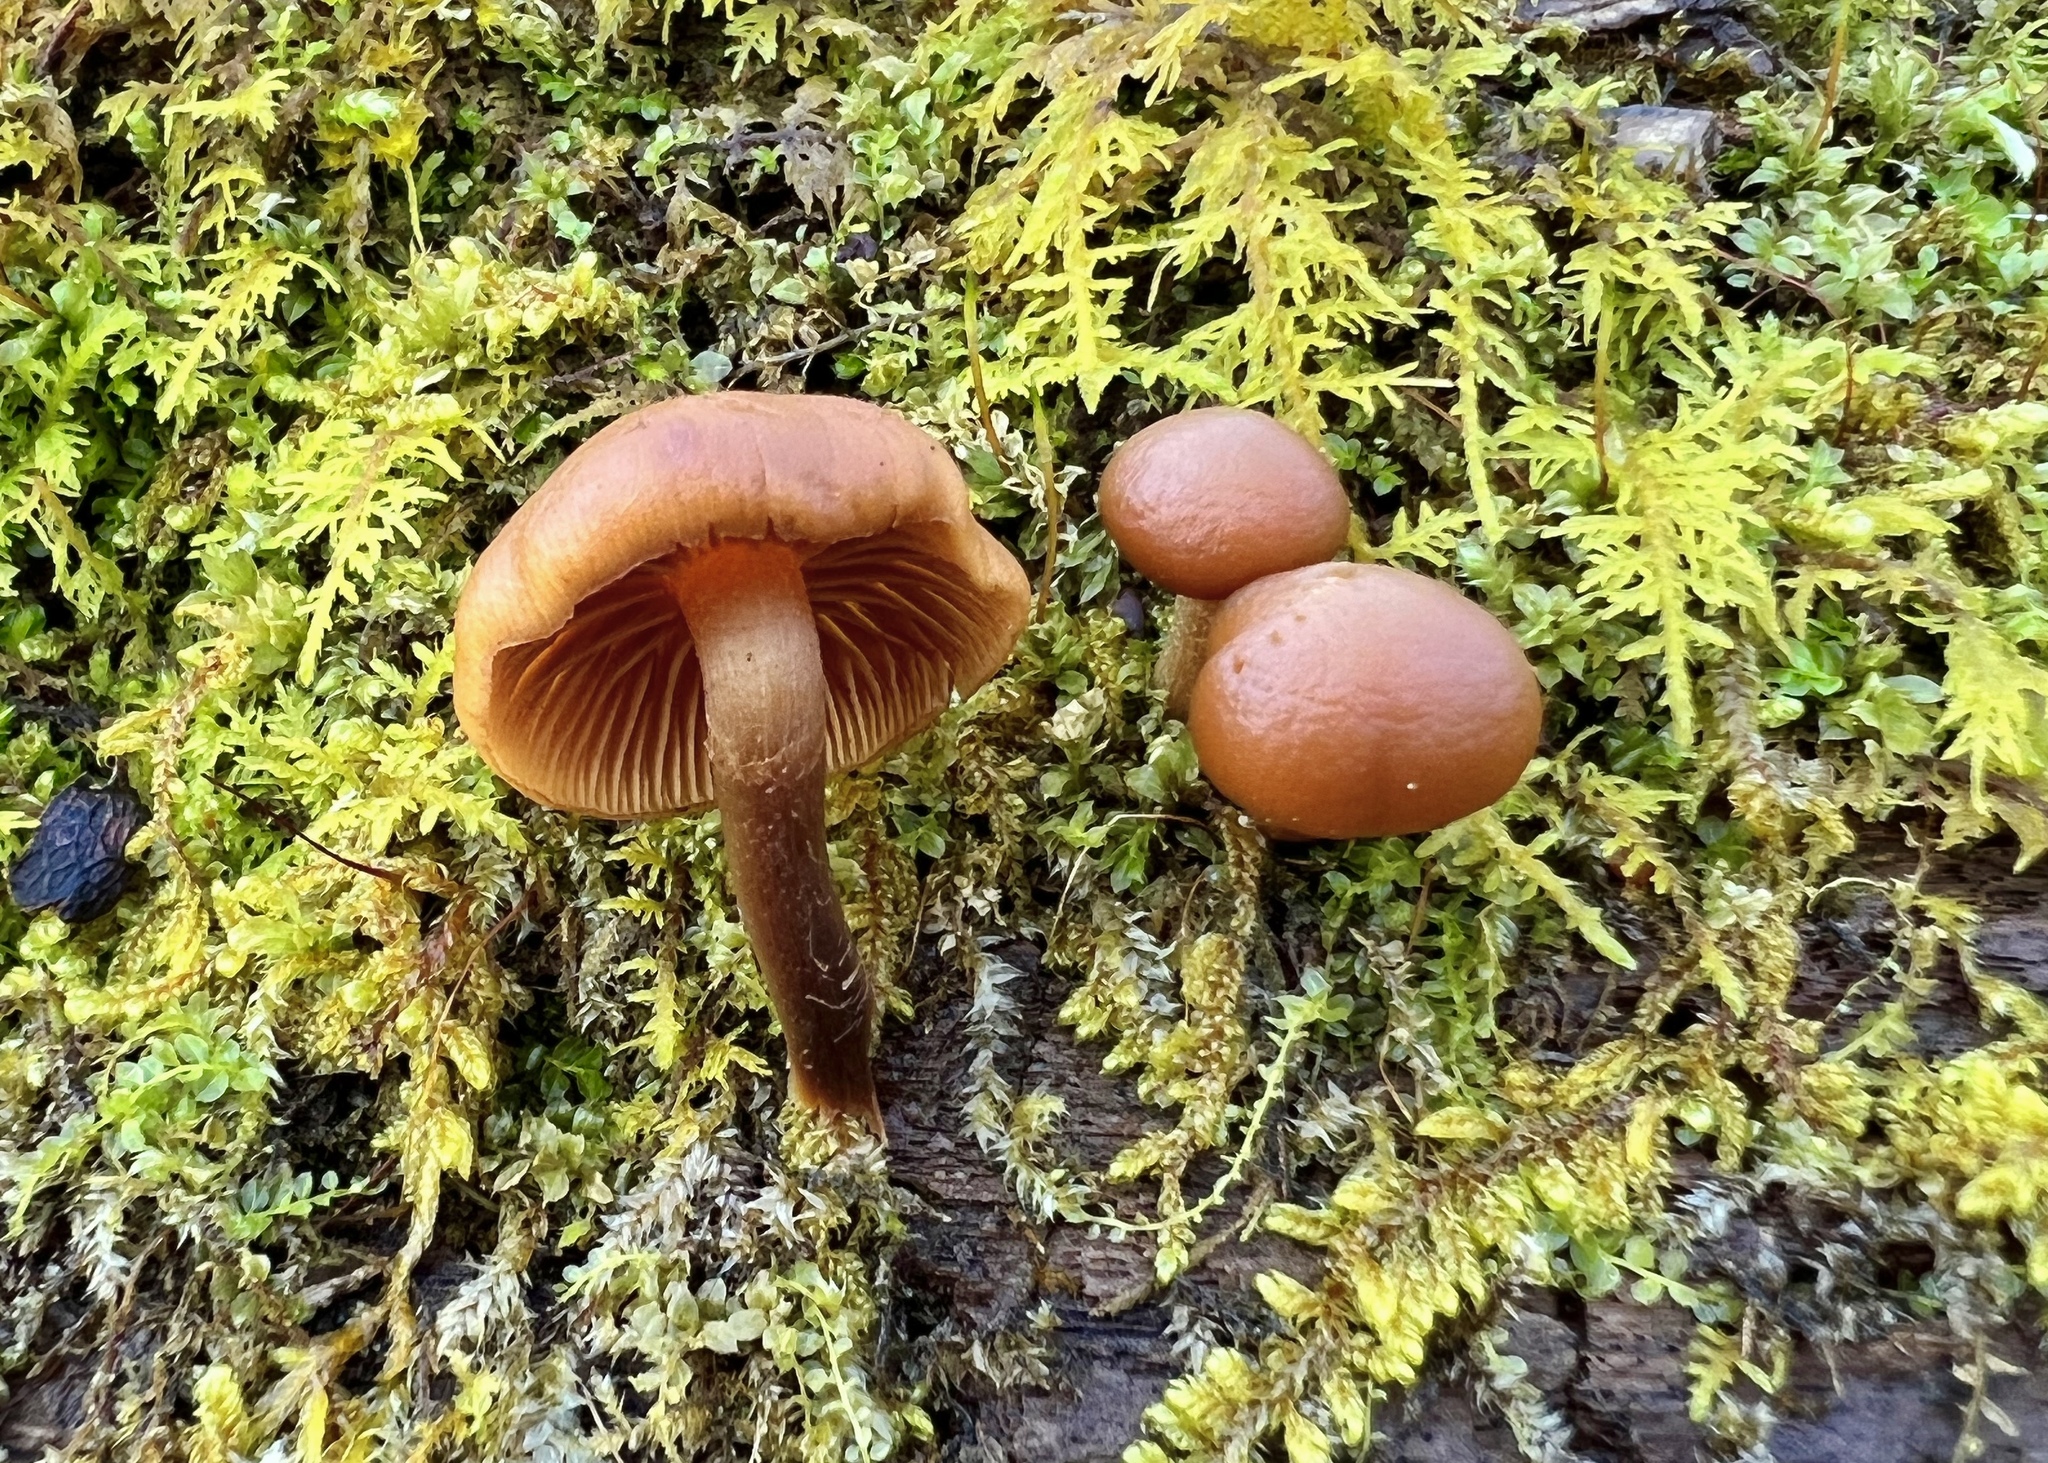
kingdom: Fungi
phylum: Basidiomycota
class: Agaricomycetes
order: Agaricales
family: Hymenogastraceae
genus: Galerina
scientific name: Galerina marginata
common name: Funeral bell
